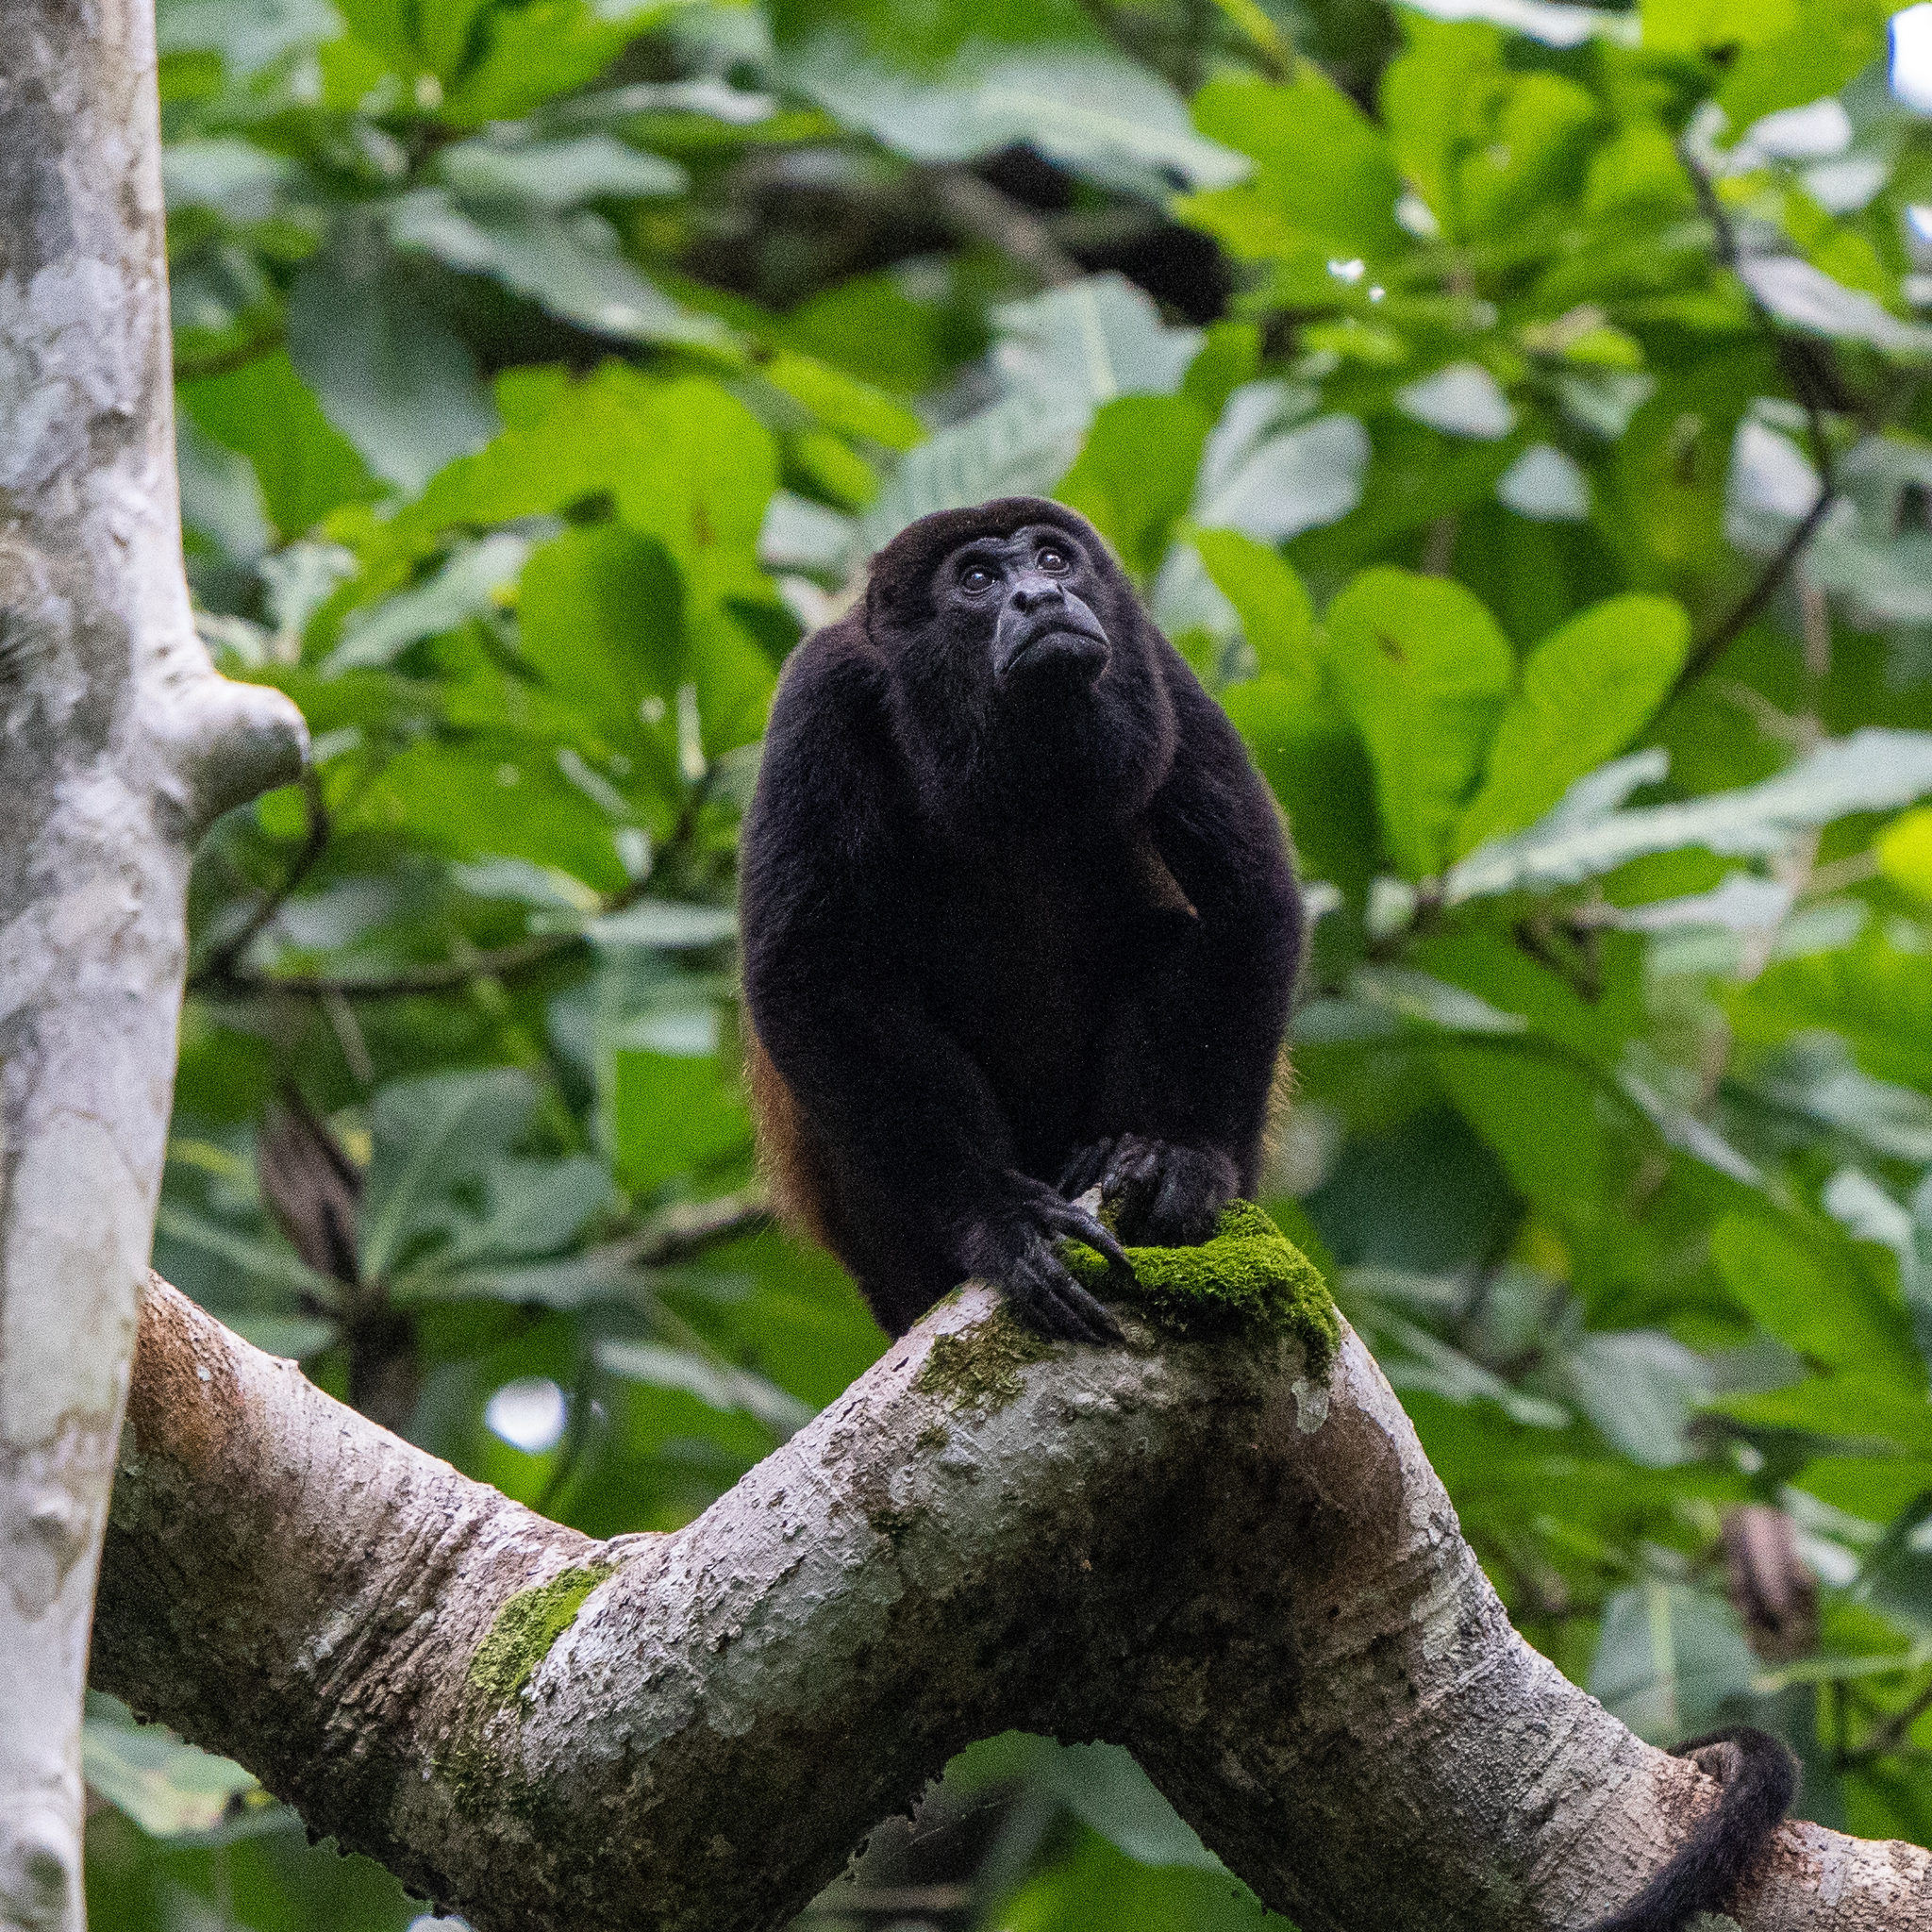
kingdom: Animalia
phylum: Chordata
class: Mammalia
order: Primates
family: Atelidae
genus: Alouatta
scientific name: Alouatta palliata
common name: Mantled howler
